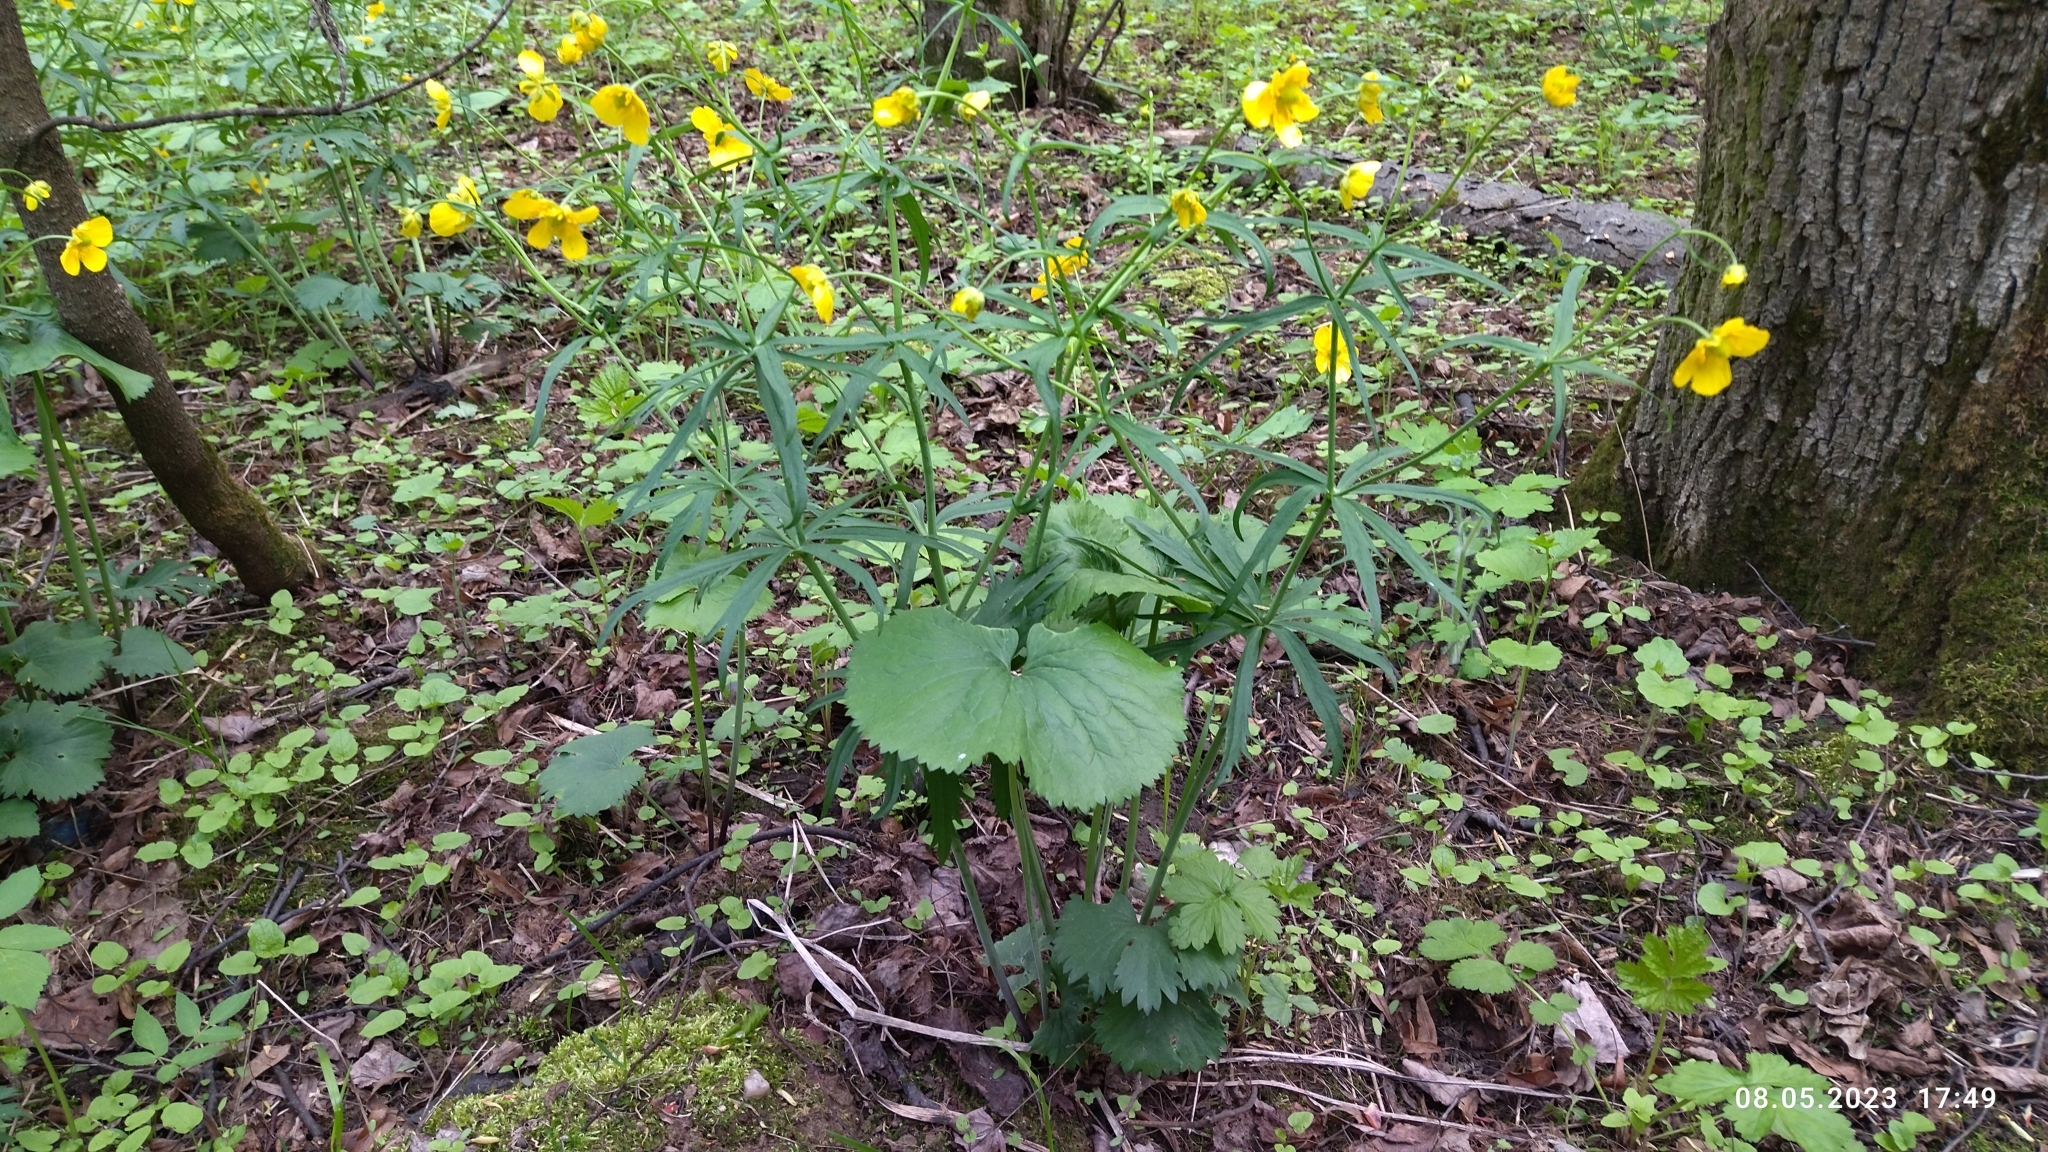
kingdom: Plantae
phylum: Tracheophyta
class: Magnoliopsida
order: Ranunculales
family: Ranunculaceae
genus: Ranunculus
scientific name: Ranunculus cassubicus
